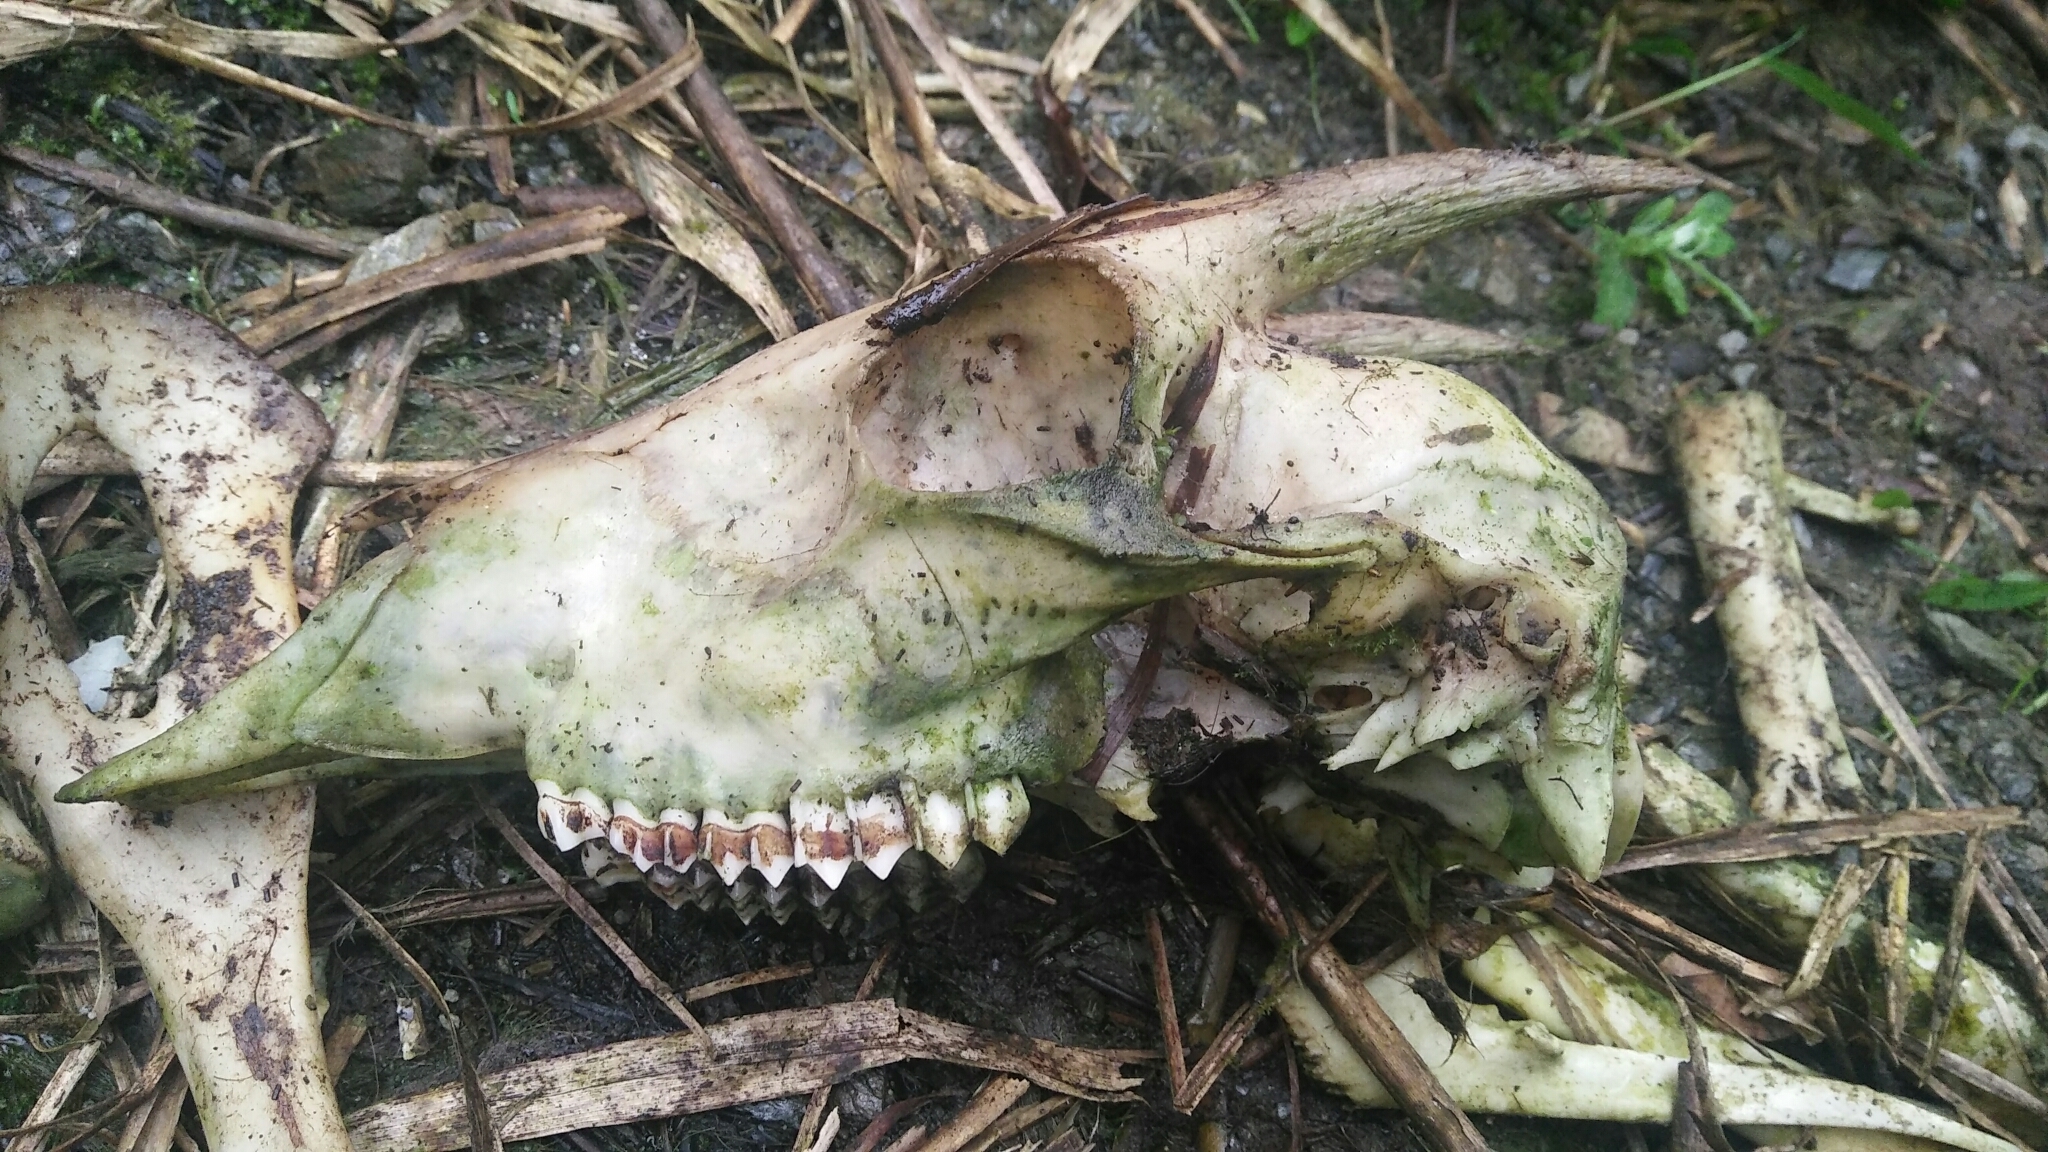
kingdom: Animalia
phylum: Chordata
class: Mammalia
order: Artiodactyla
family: Bovidae
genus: Capricornis
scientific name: Capricornis swinhoei
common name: Formosan serow
